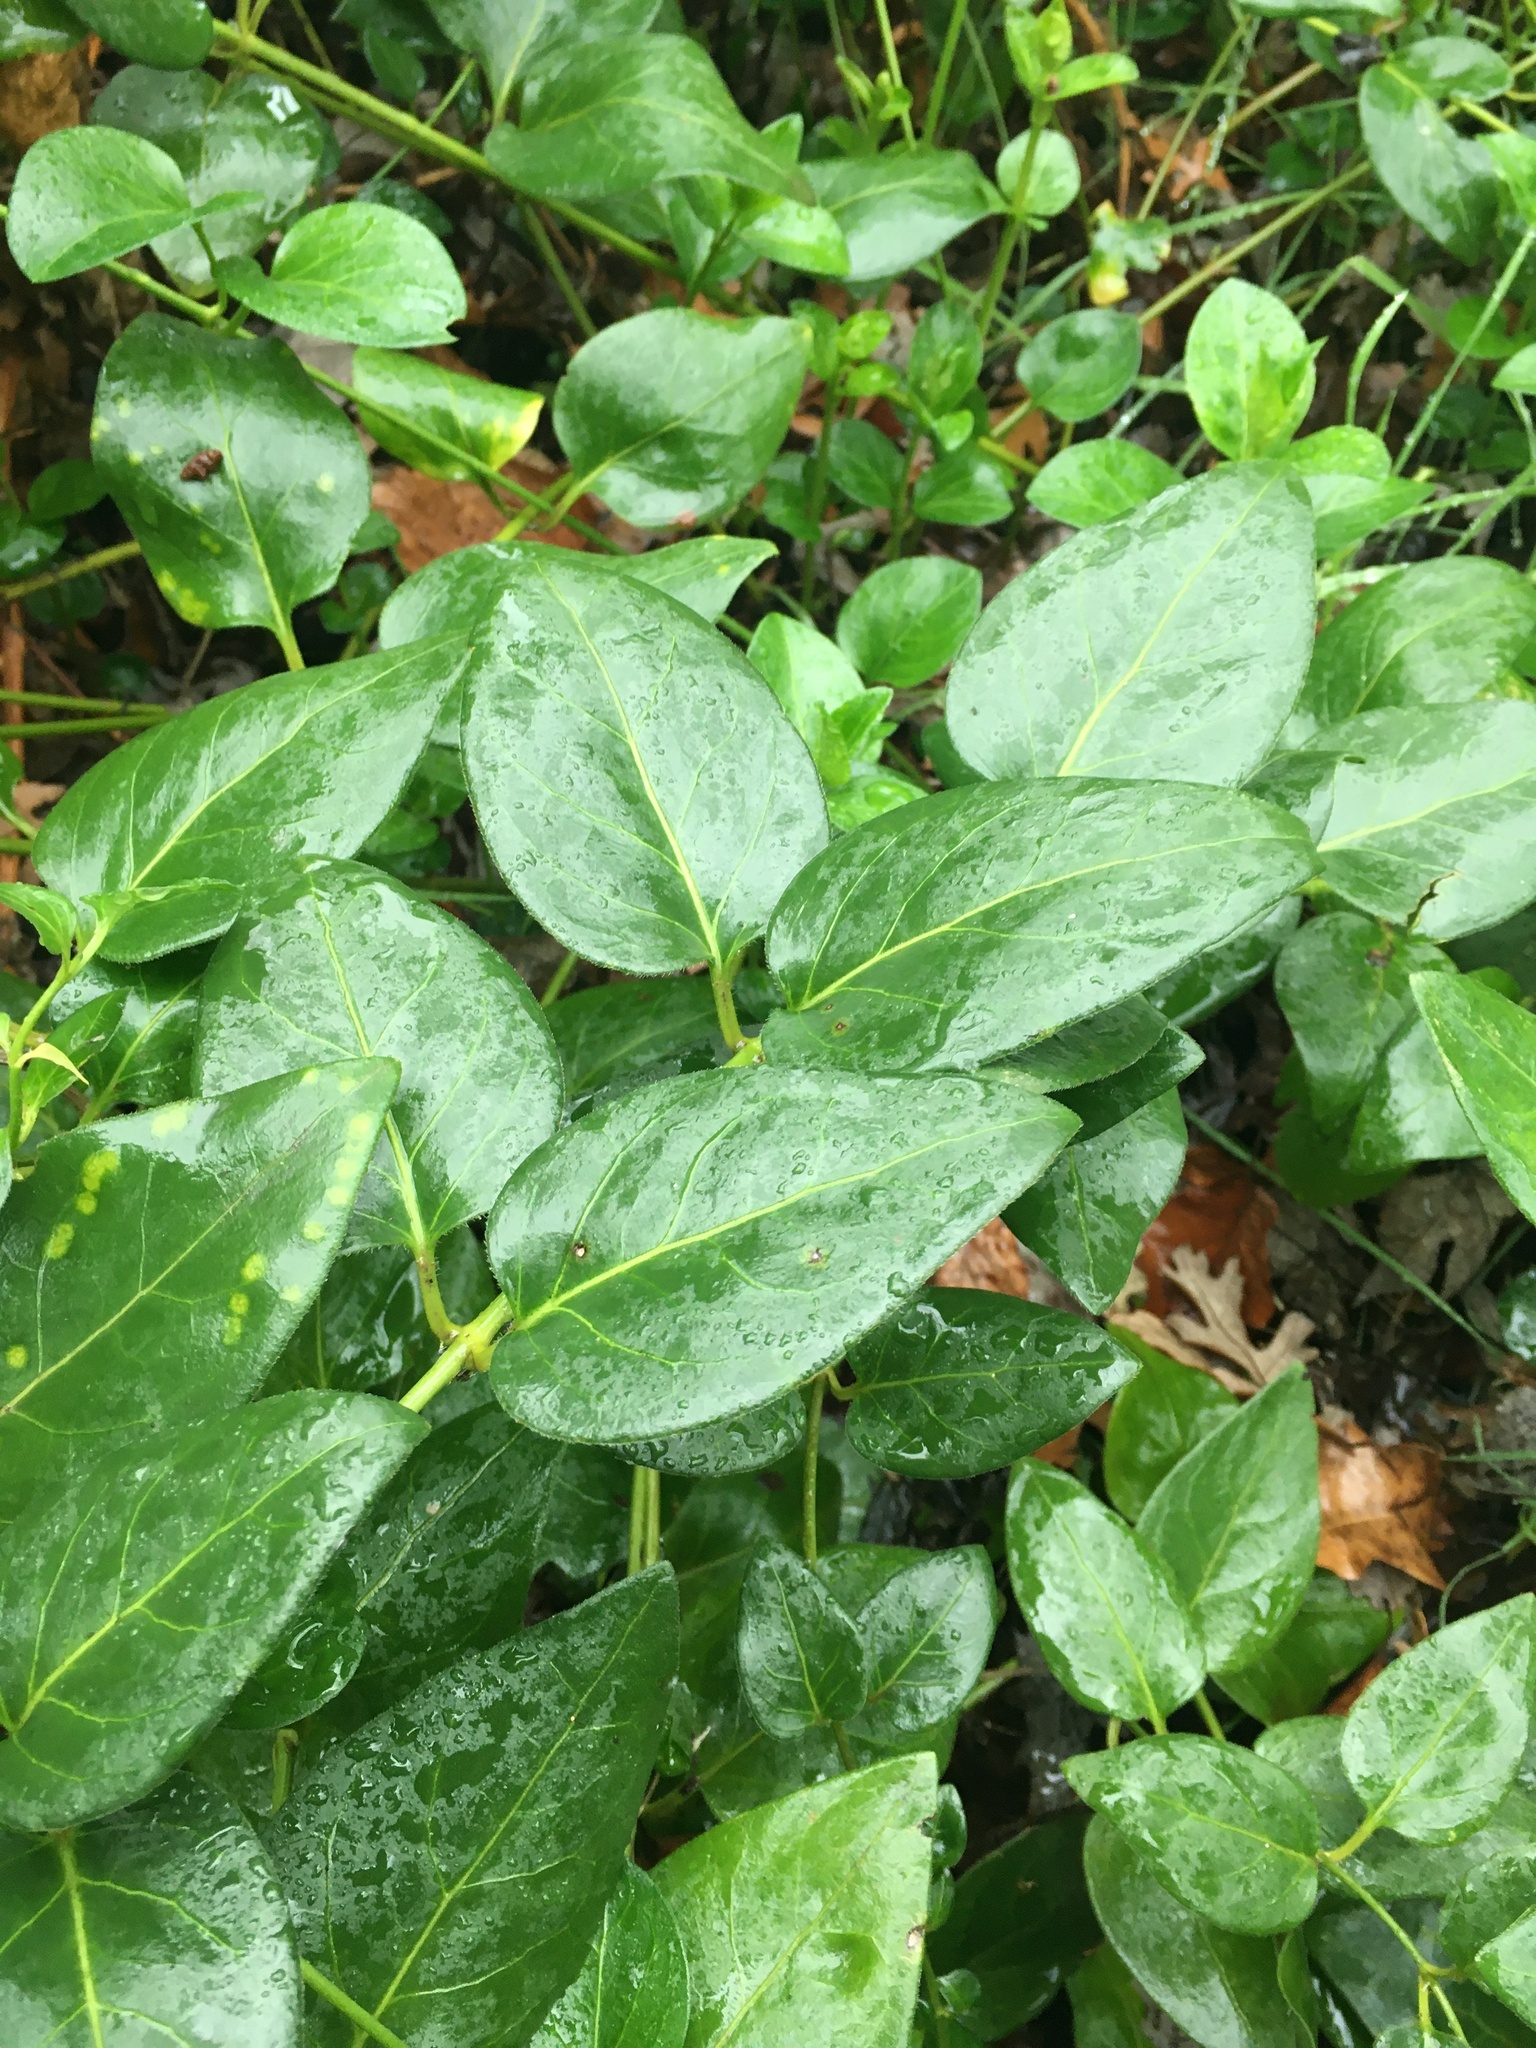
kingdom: Plantae
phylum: Tracheophyta
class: Magnoliopsida
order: Gentianales
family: Apocynaceae
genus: Vinca
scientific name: Vinca major
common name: Greater periwinkle
